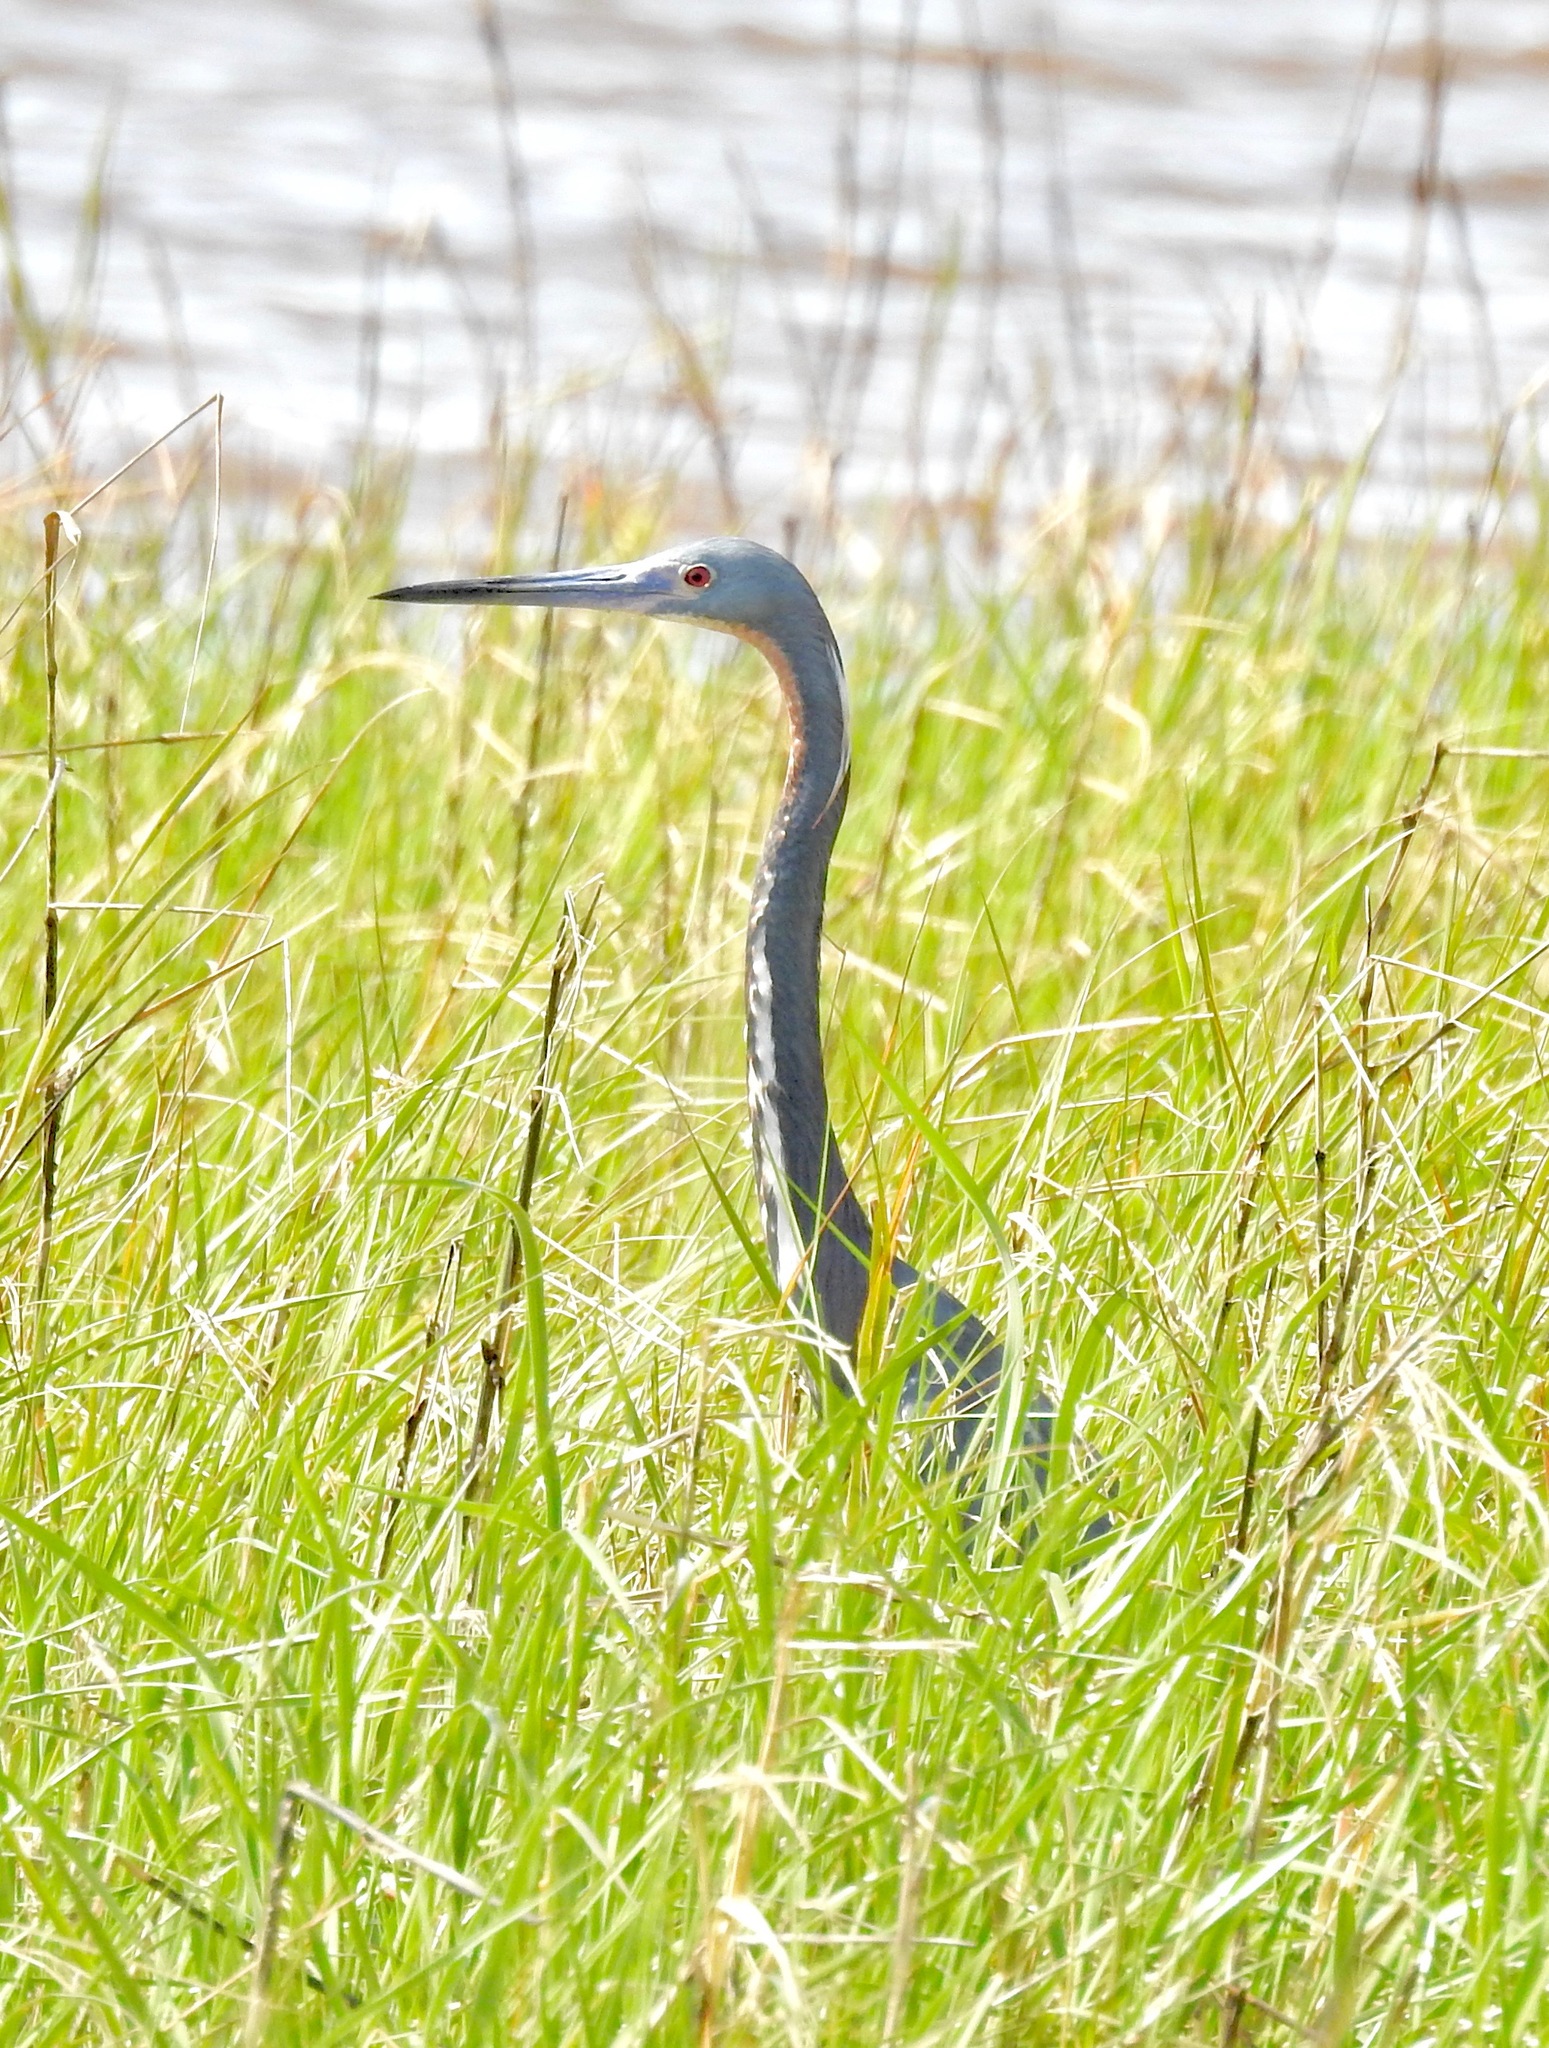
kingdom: Animalia
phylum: Chordata
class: Aves
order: Pelecaniformes
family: Ardeidae
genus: Egretta
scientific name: Egretta tricolor
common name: Tricolored heron
